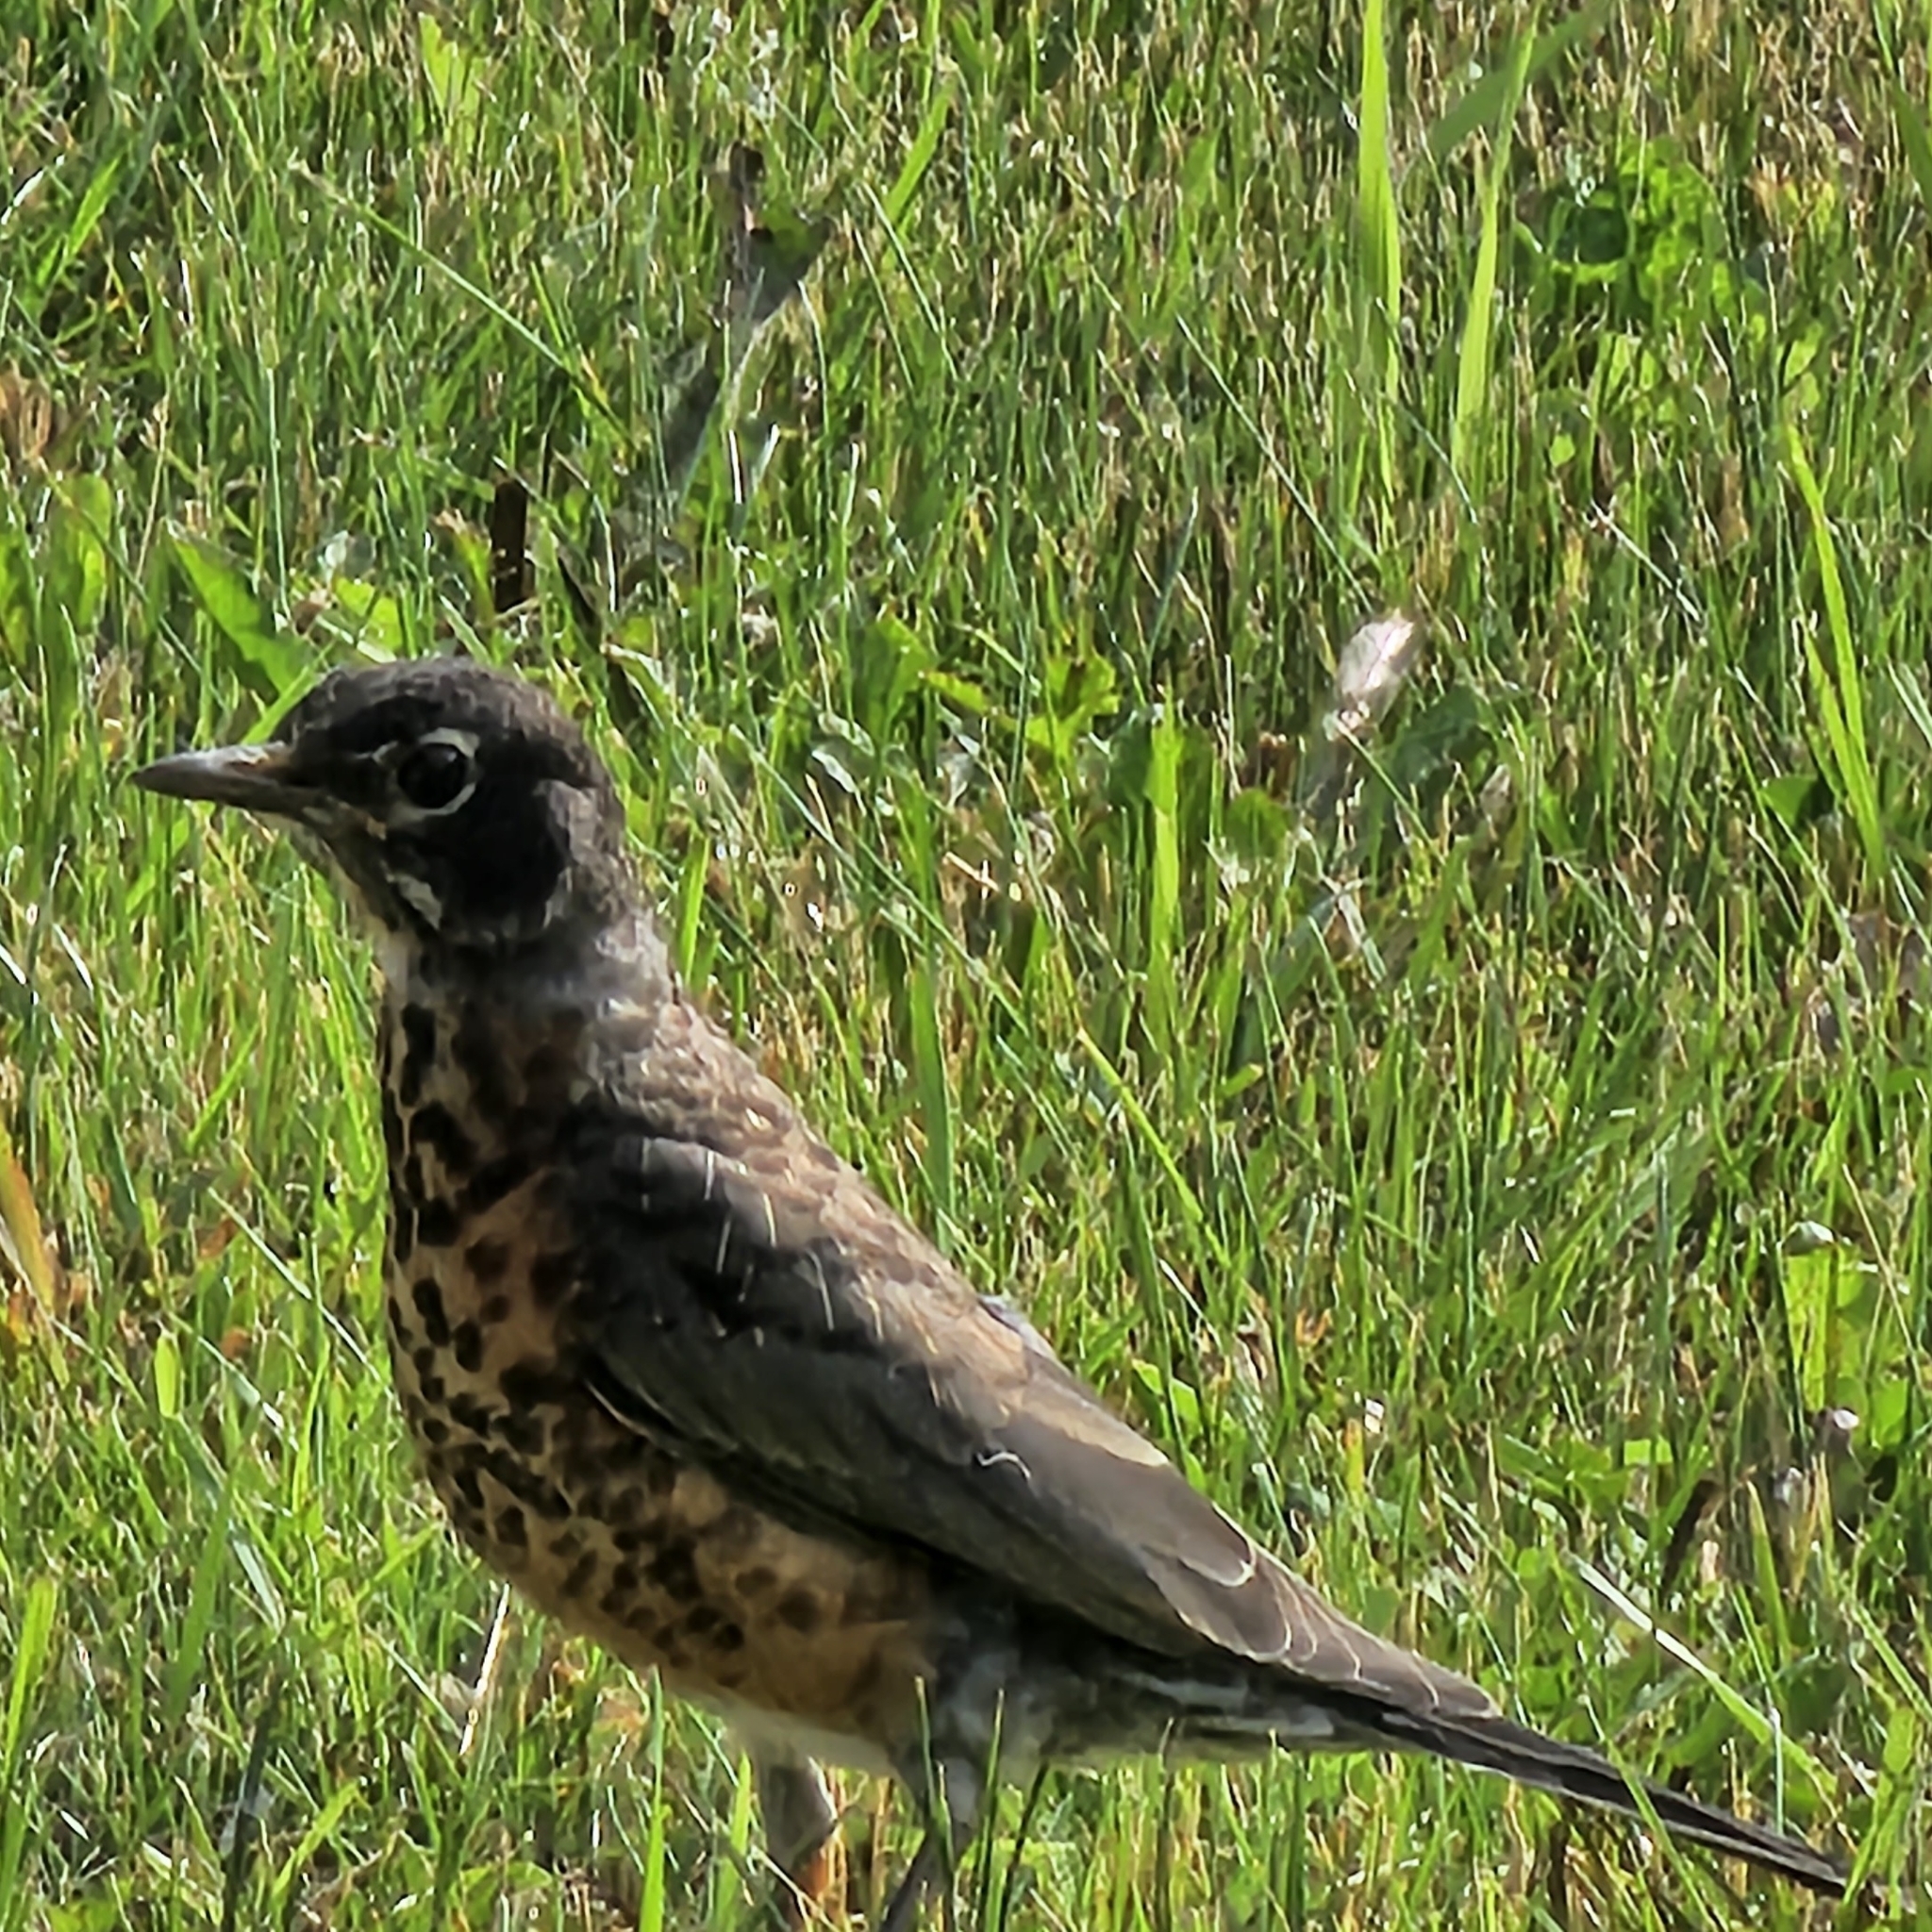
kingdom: Animalia
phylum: Chordata
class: Aves
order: Passeriformes
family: Turdidae
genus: Turdus
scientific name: Turdus migratorius
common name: American robin
